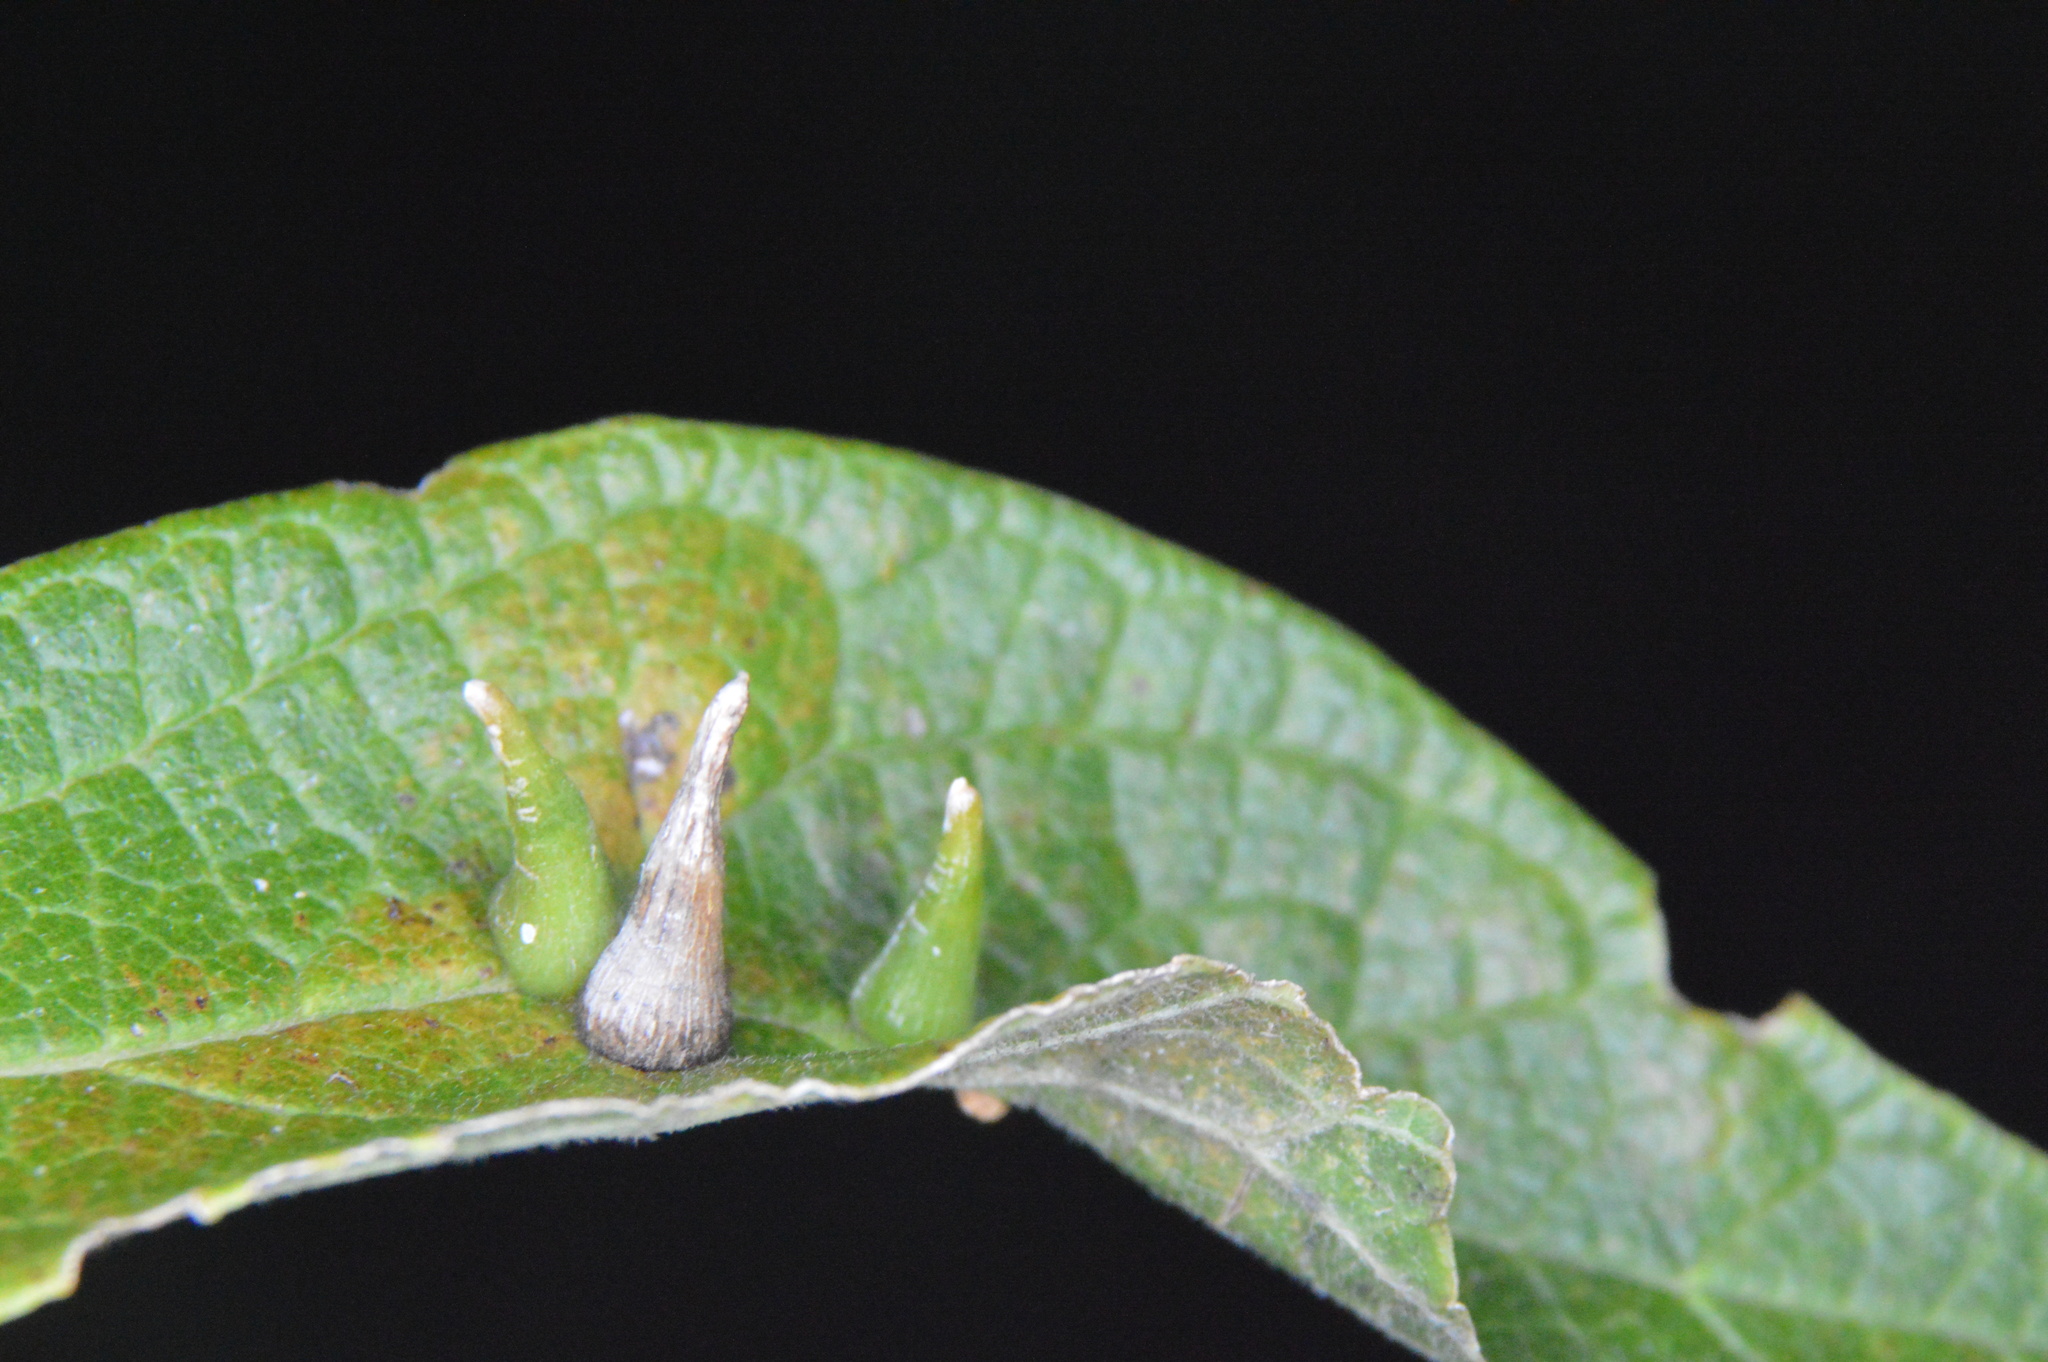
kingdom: Animalia
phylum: Arthropoda
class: Insecta
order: Diptera
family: Cecidomyiidae
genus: Celticecis
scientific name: Celticecis subulata
